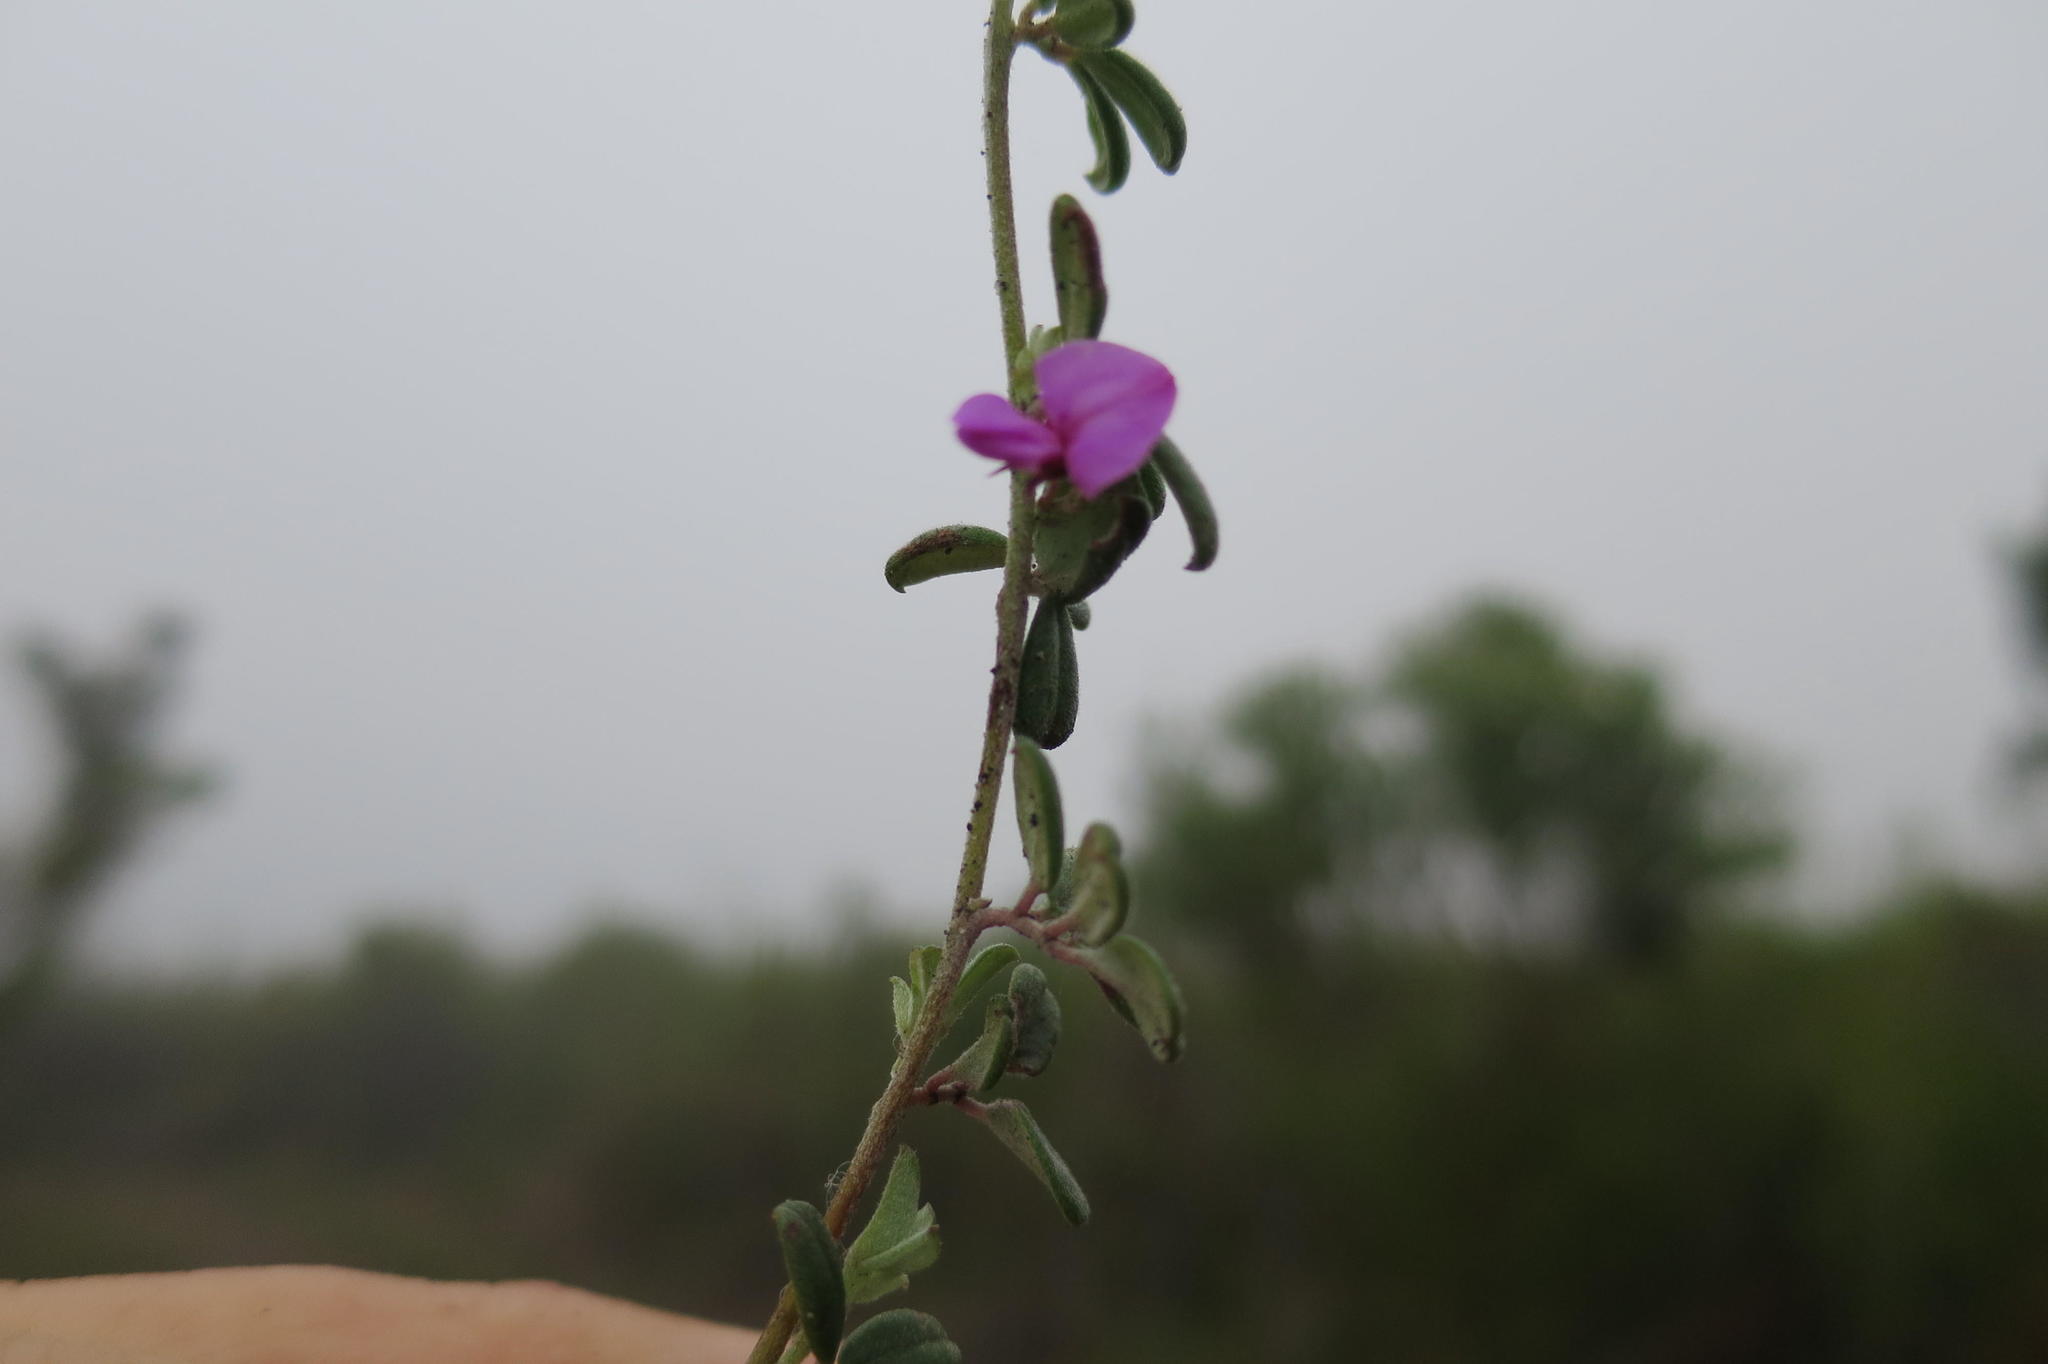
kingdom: Plantae
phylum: Tracheophyta
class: Magnoliopsida
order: Fabales
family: Fabaceae
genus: Indigofera
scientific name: Indigofera
